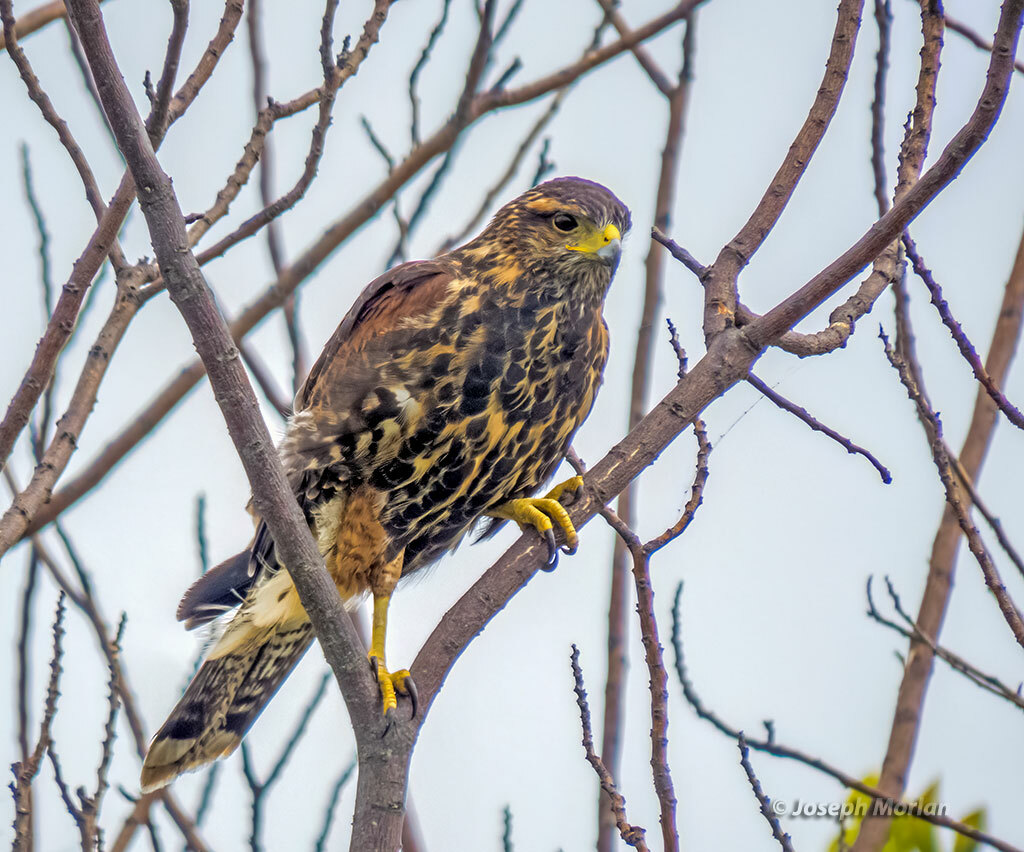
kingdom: Animalia
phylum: Chordata
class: Aves
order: Accipitriformes
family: Accipitridae
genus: Parabuteo
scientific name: Parabuteo unicinctus
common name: Harris's hawk
